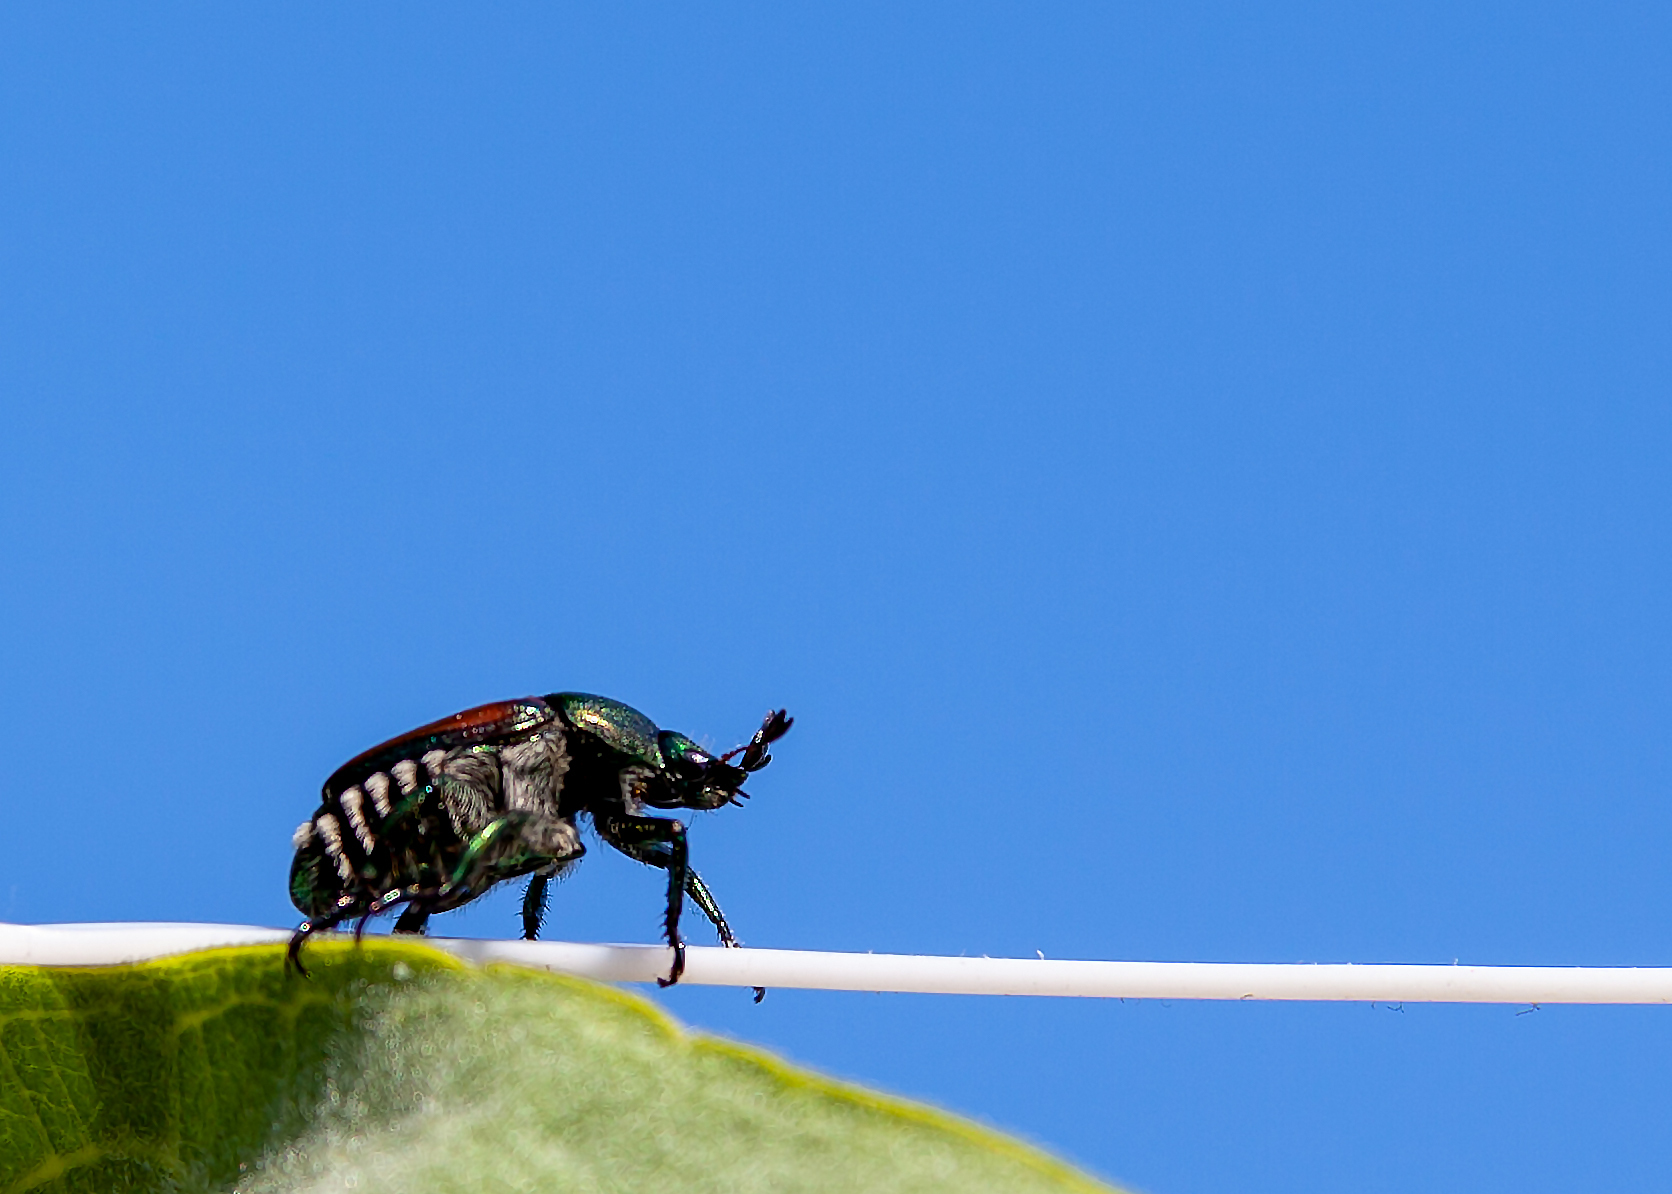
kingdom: Animalia
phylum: Arthropoda
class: Insecta
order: Coleoptera
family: Scarabaeidae
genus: Popillia
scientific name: Popillia japonica
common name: Japanese beetle
